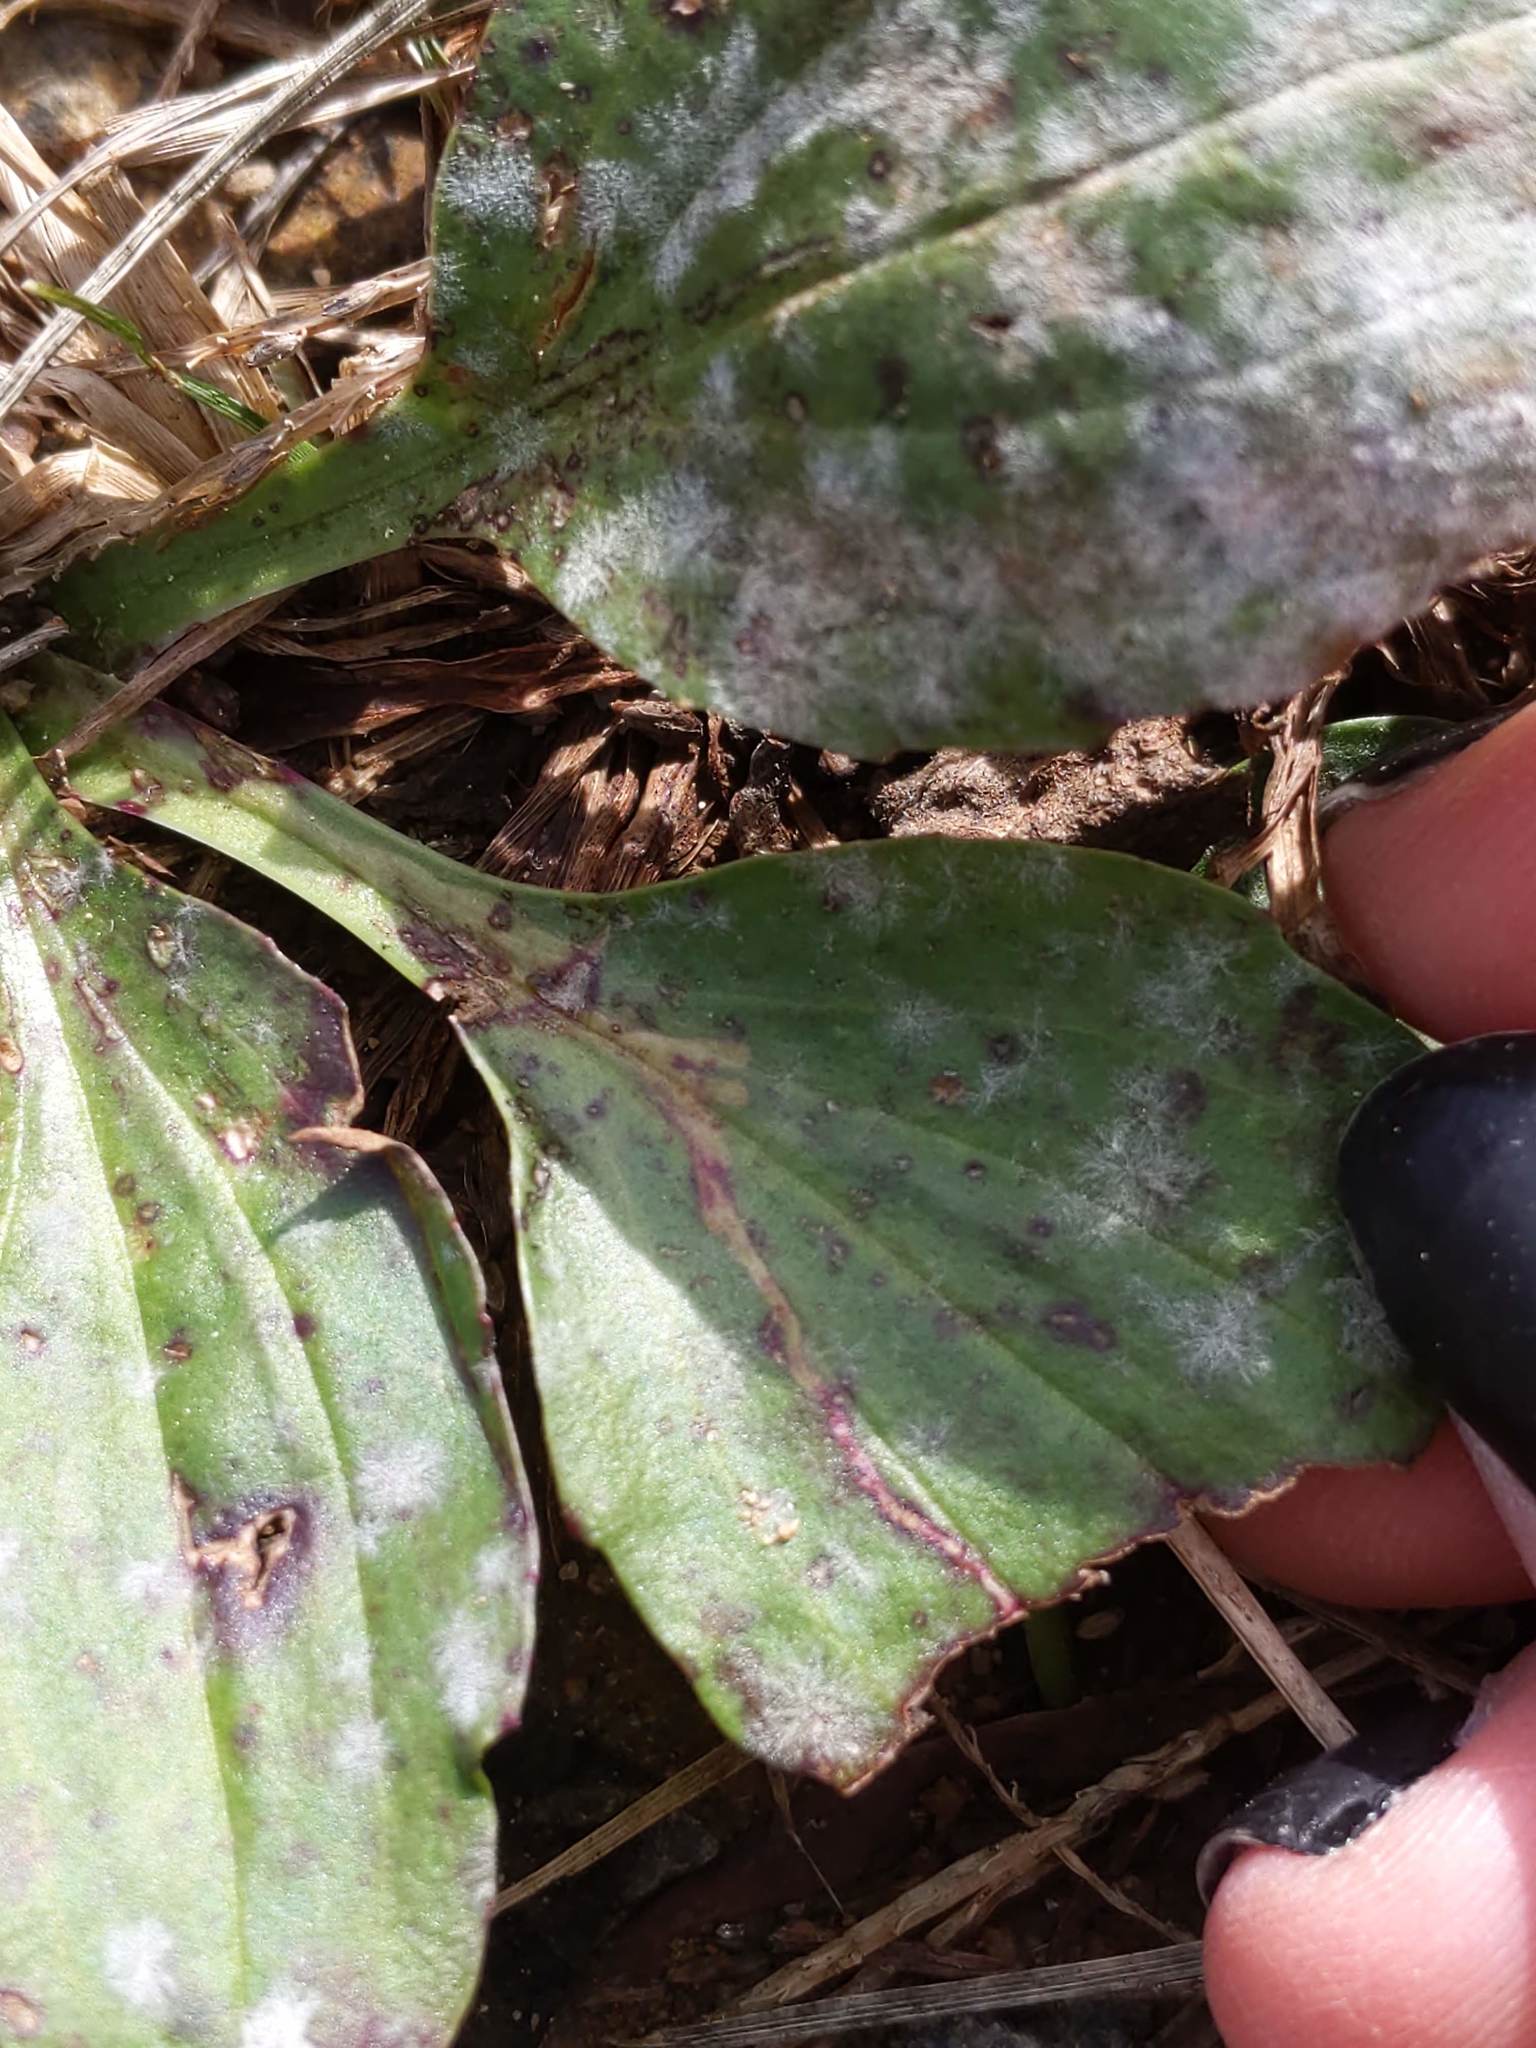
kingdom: Animalia
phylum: Arthropoda
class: Insecta
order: Diptera
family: Agromyzidae
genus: Phytomyza
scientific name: Phytomyza plantaginis
